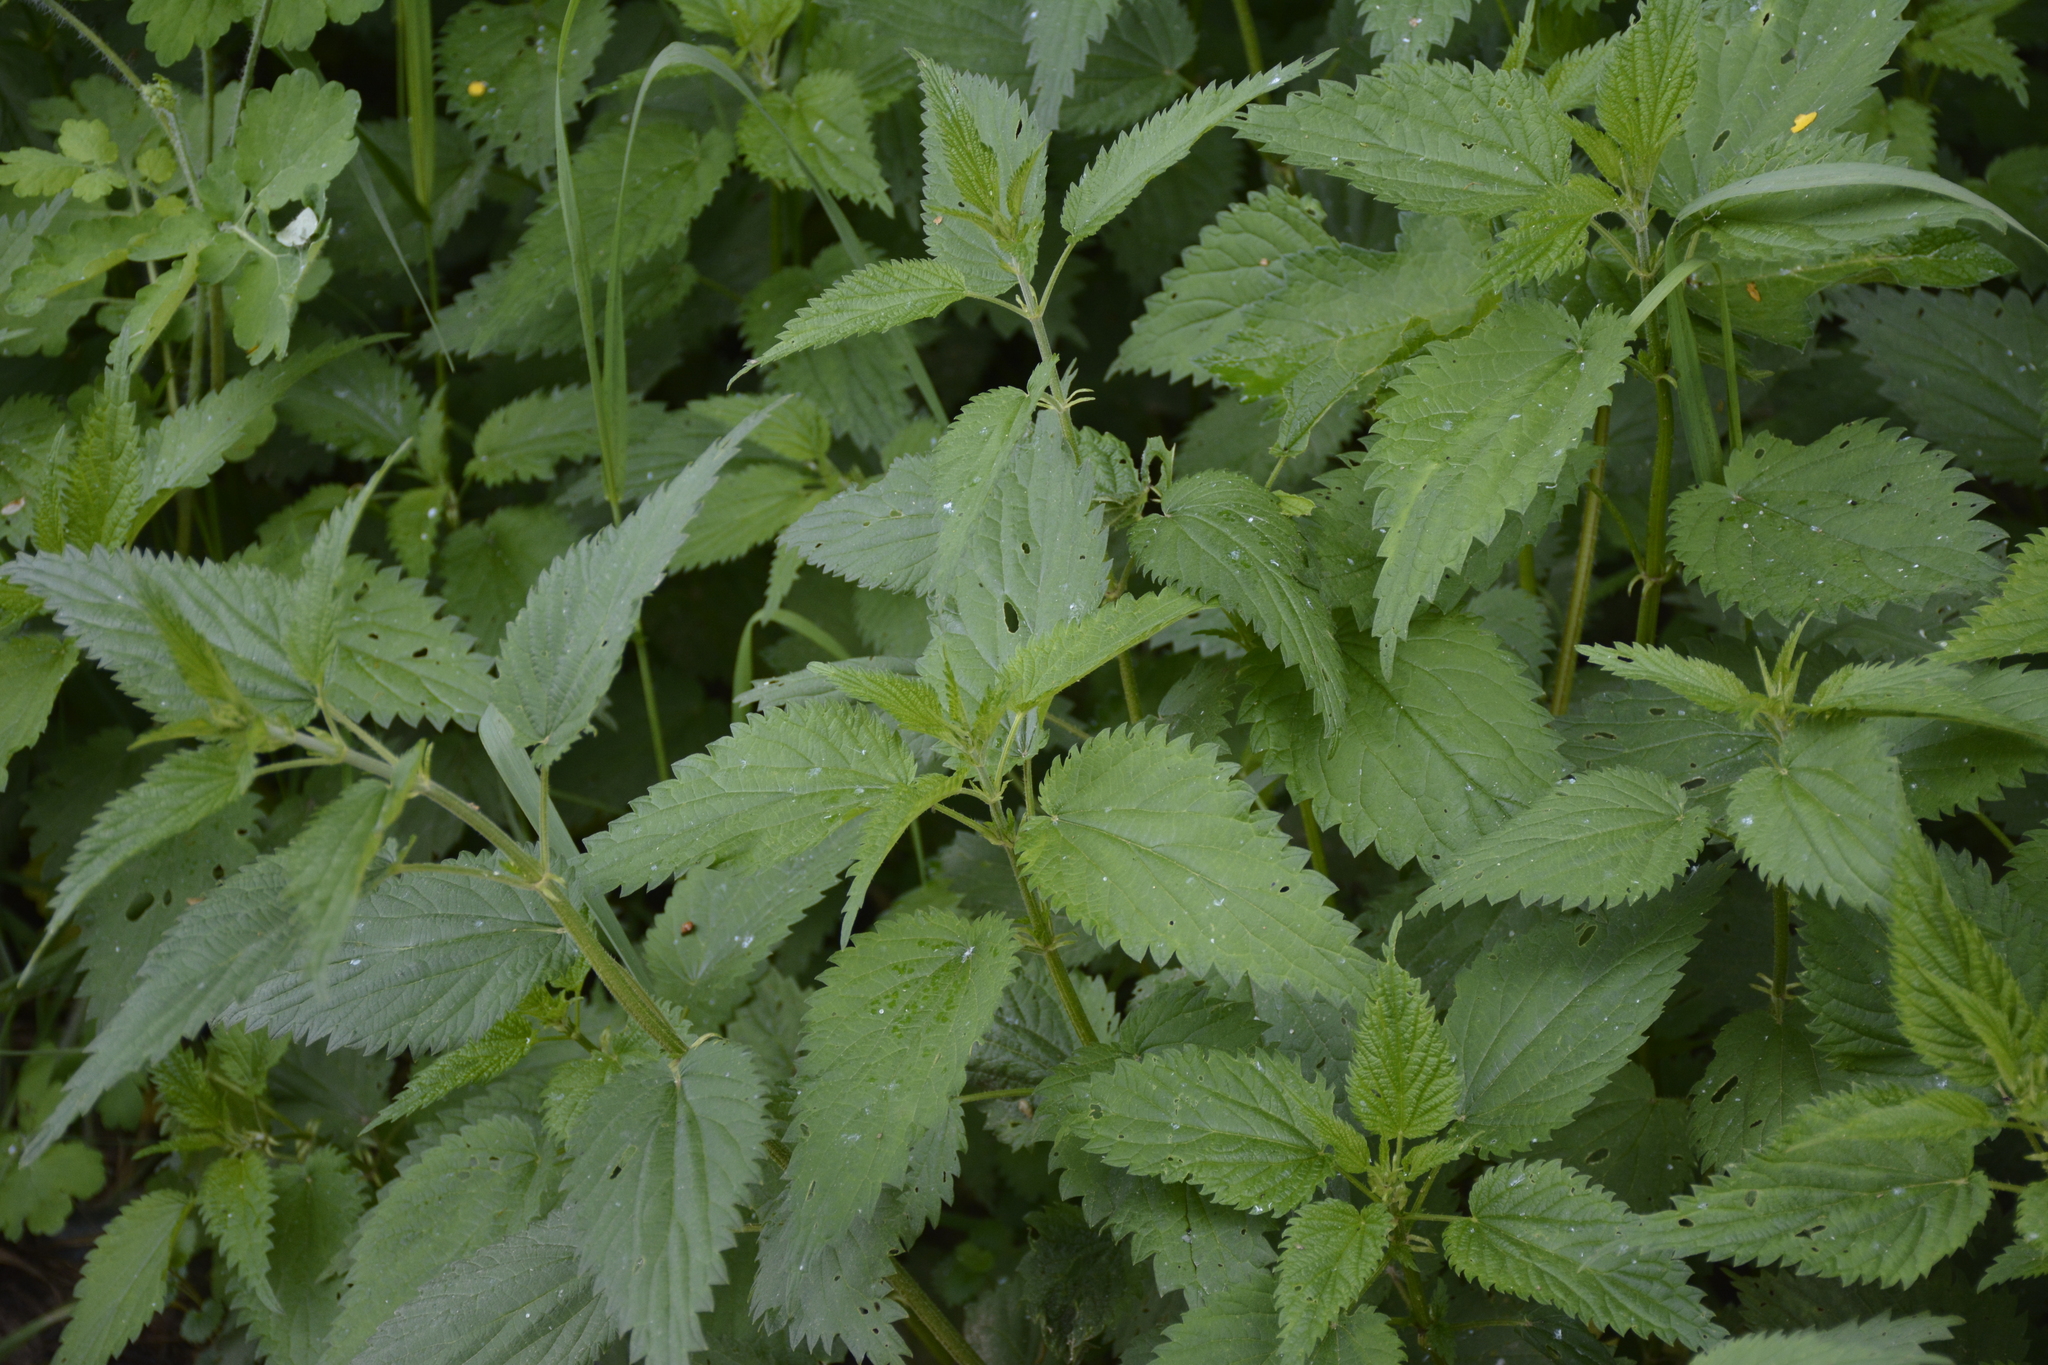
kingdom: Plantae
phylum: Tracheophyta
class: Magnoliopsida
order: Rosales
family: Urticaceae
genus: Urtica
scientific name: Urtica dioica
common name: Common nettle
